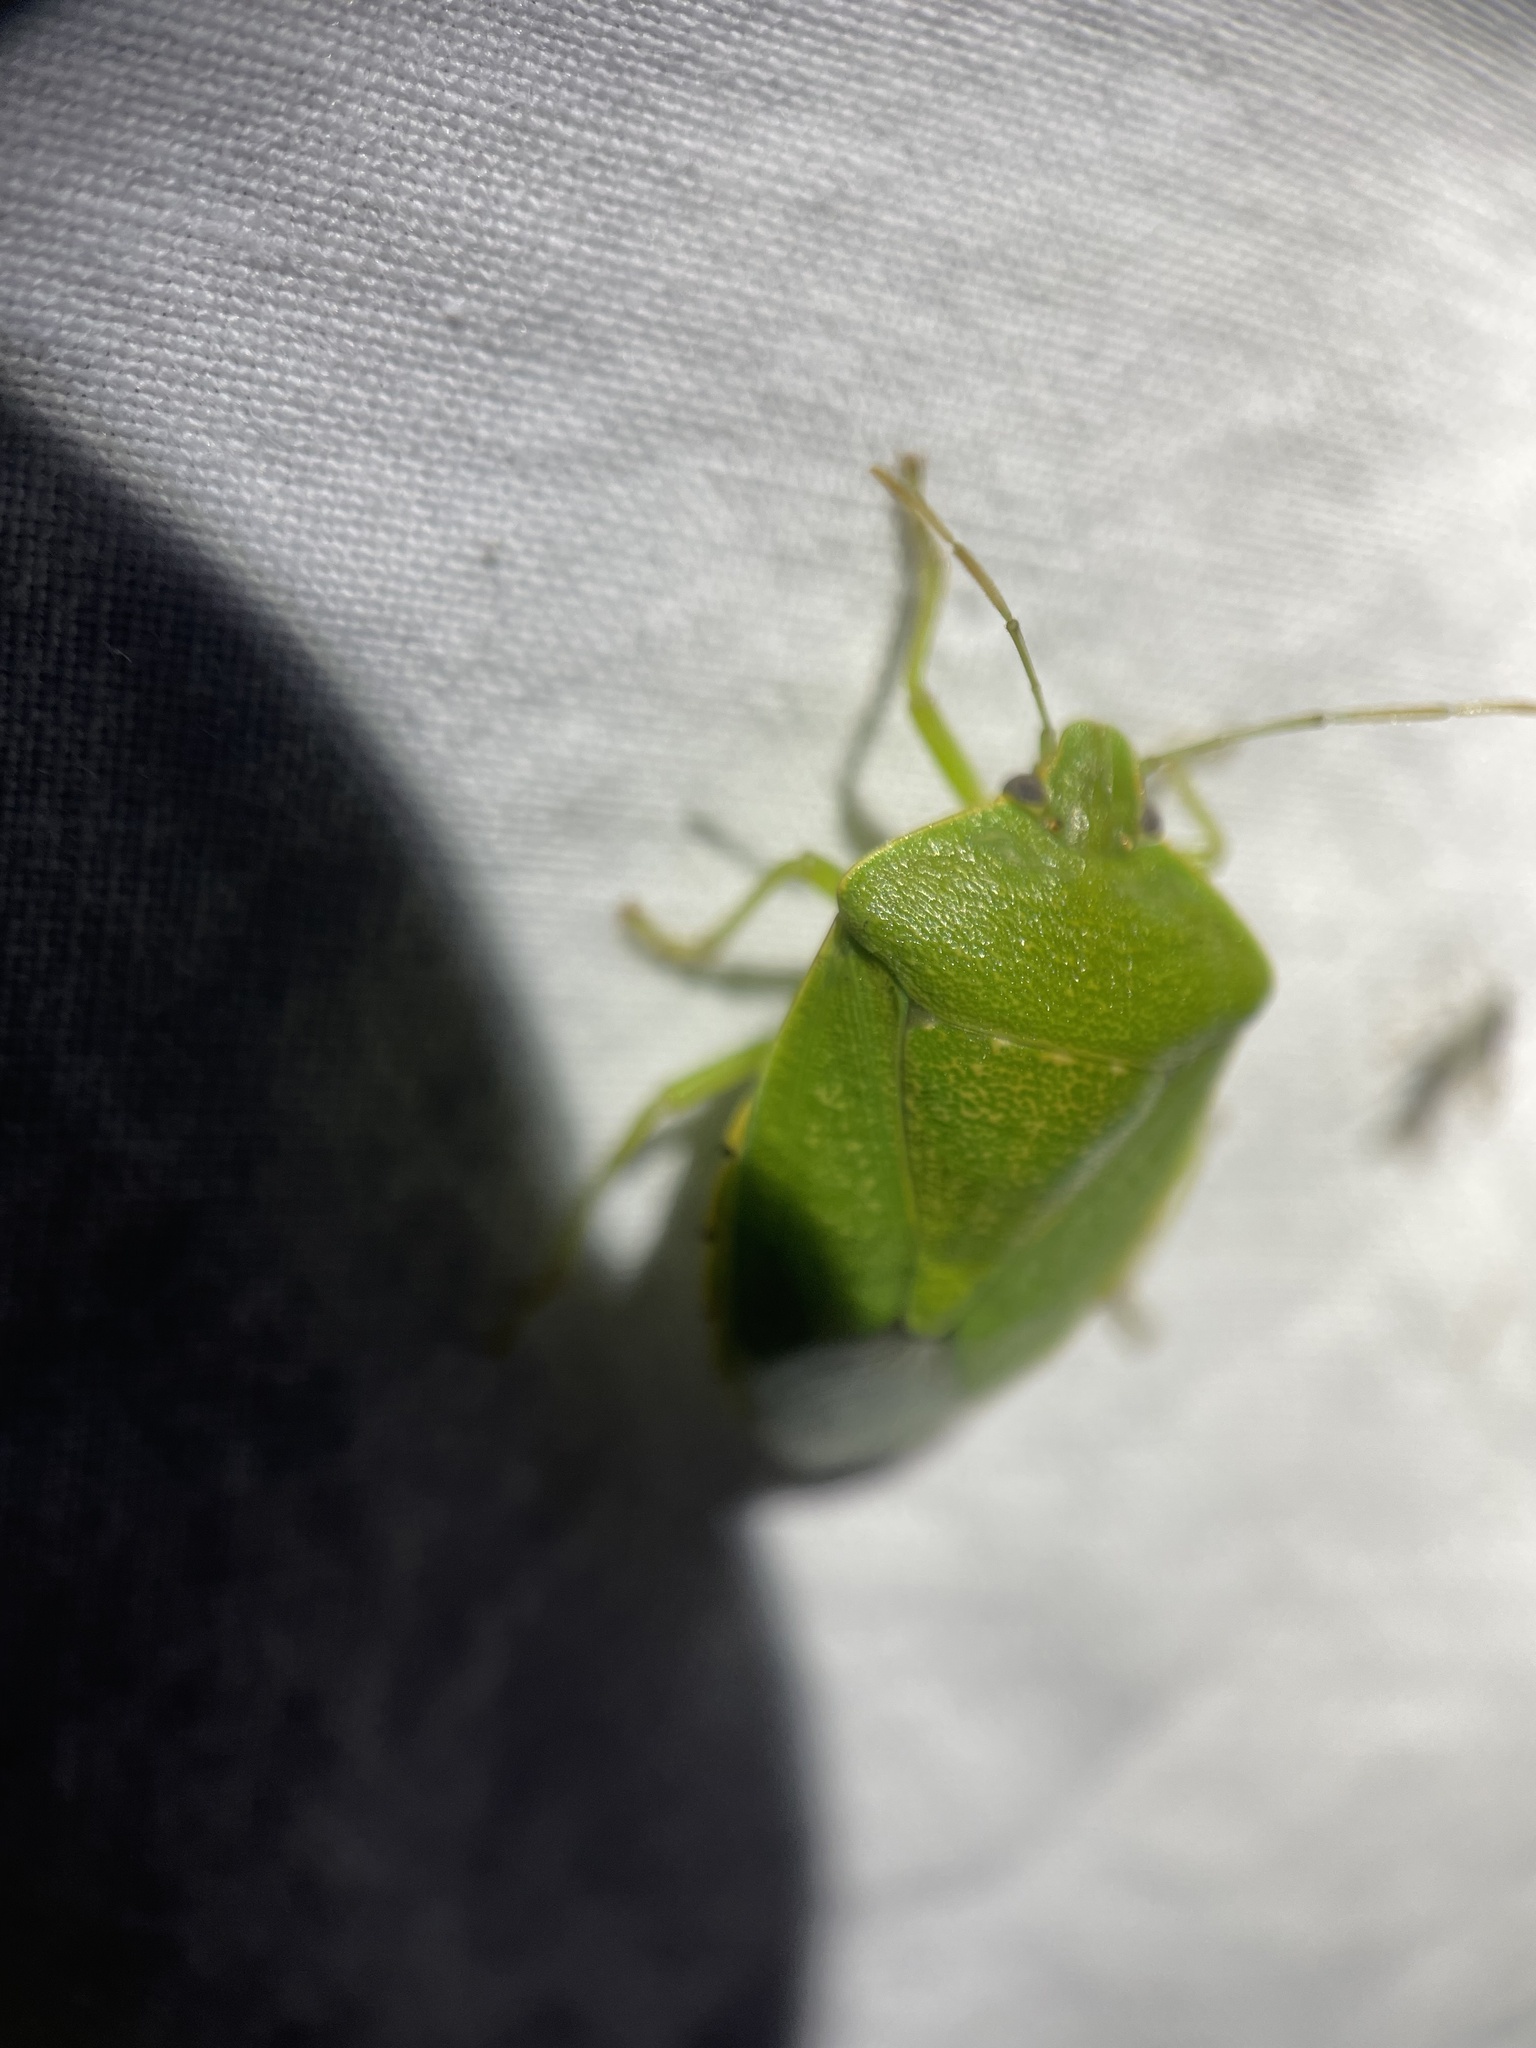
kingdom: Animalia
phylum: Arthropoda
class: Insecta
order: Hemiptera
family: Pentatomidae
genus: Chinavia
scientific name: Chinavia hilaris
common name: Green stink bug
